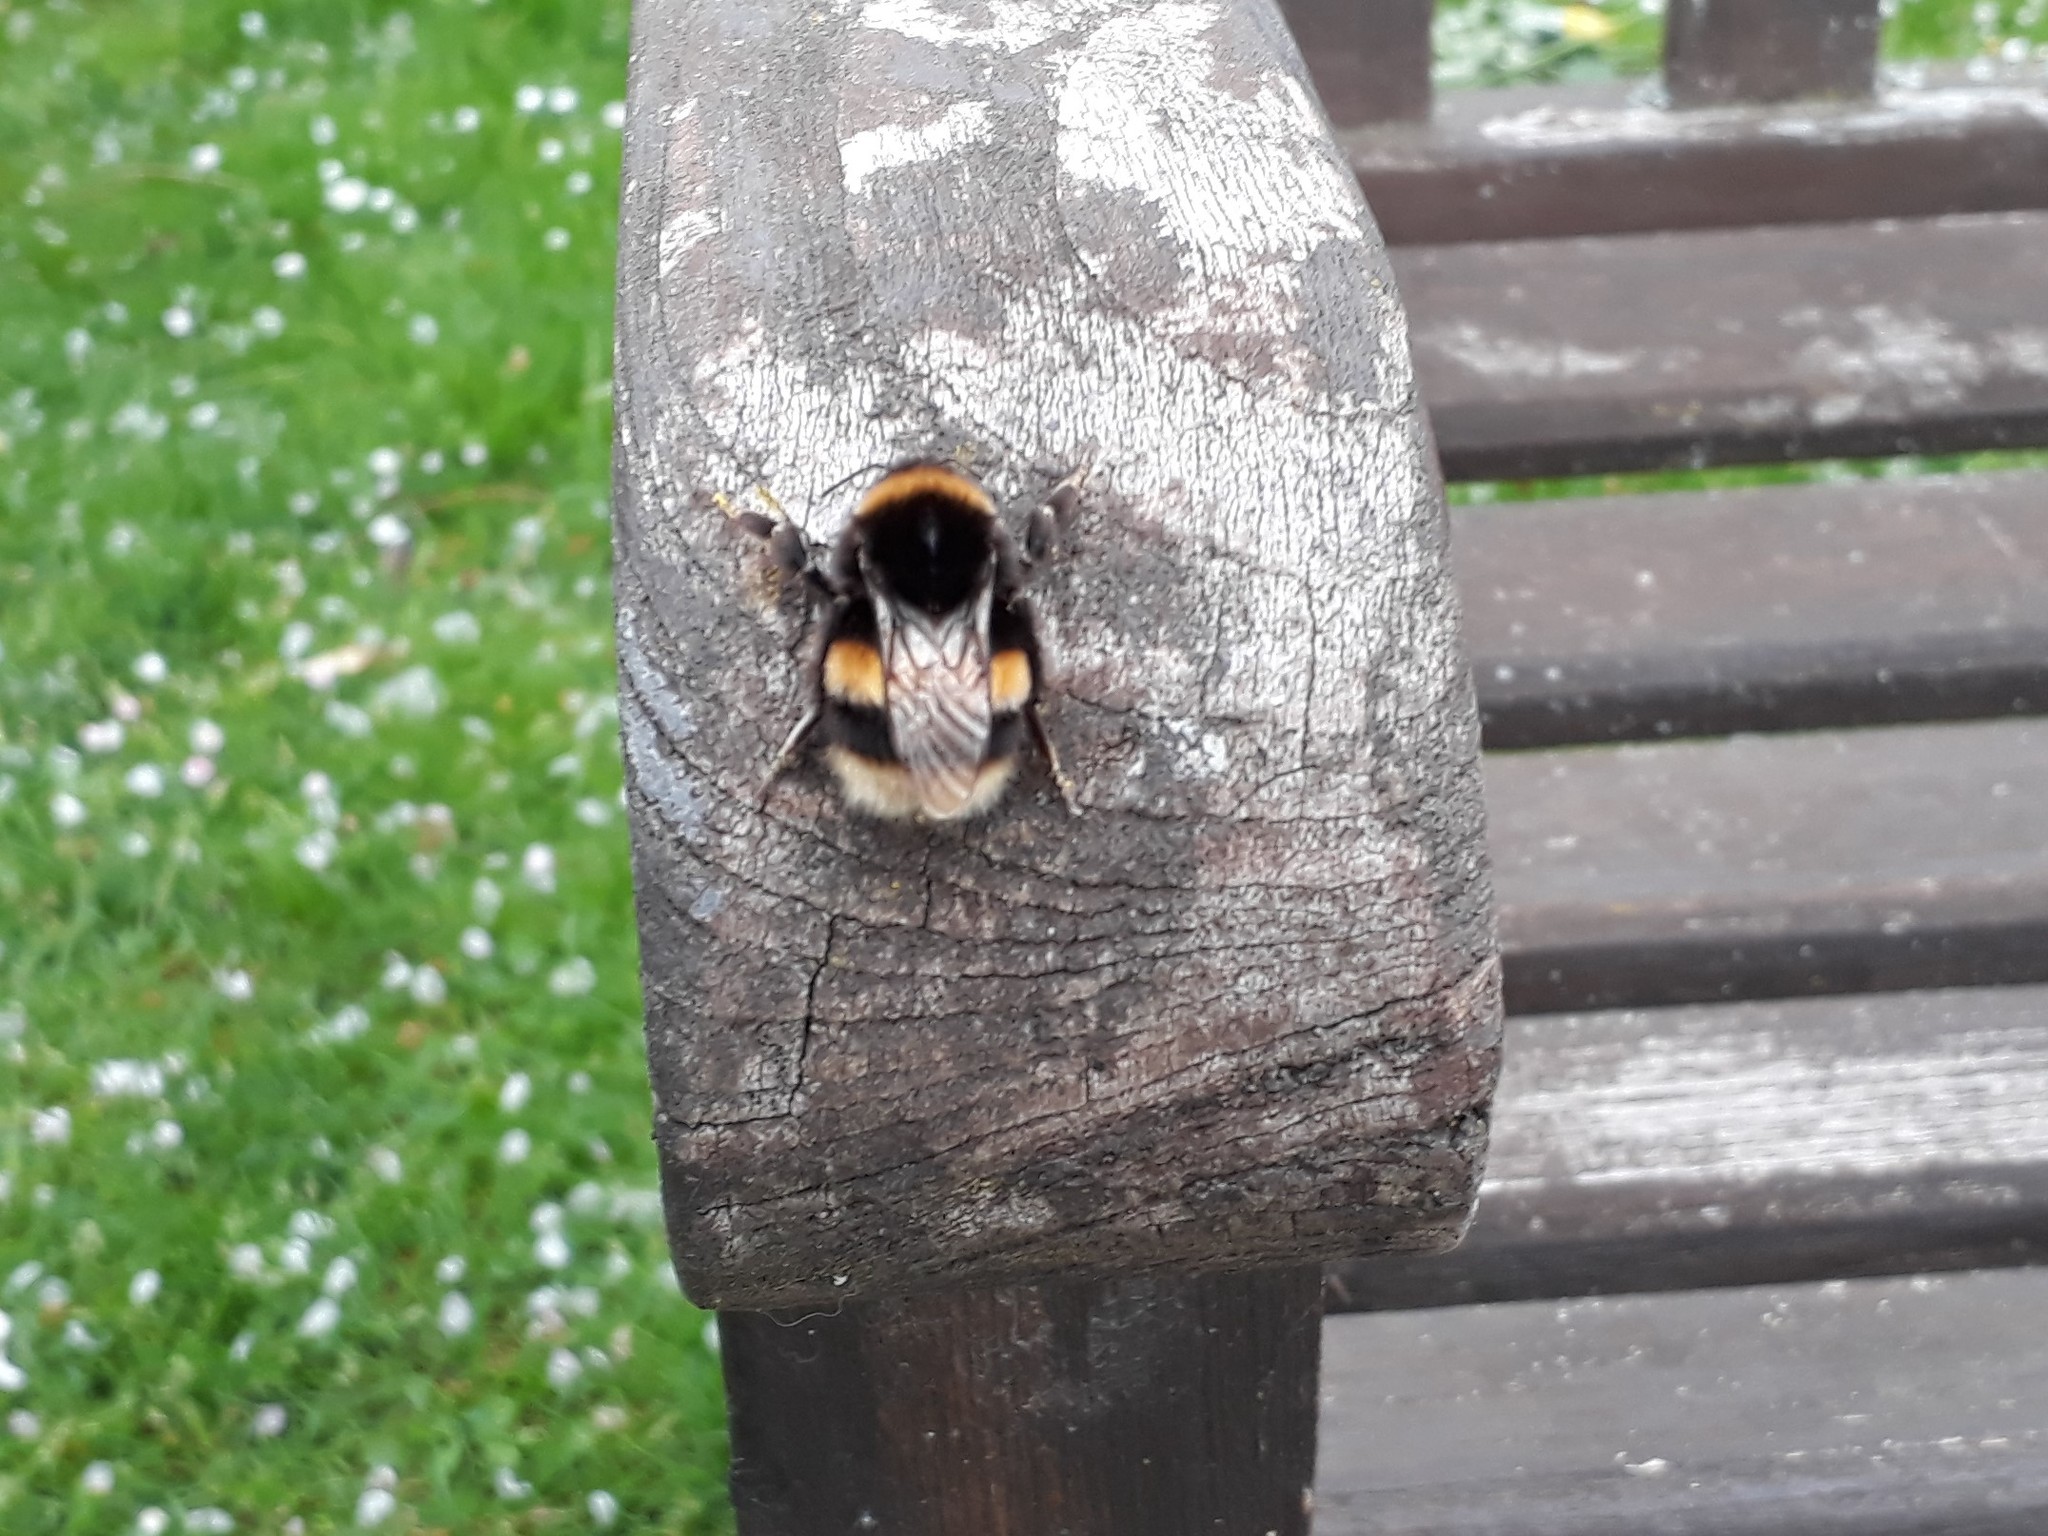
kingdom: Animalia
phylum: Arthropoda
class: Insecta
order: Hymenoptera
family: Apidae
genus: Bombus
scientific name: Bombus terrestris
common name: Buff-tailed bumblebee
